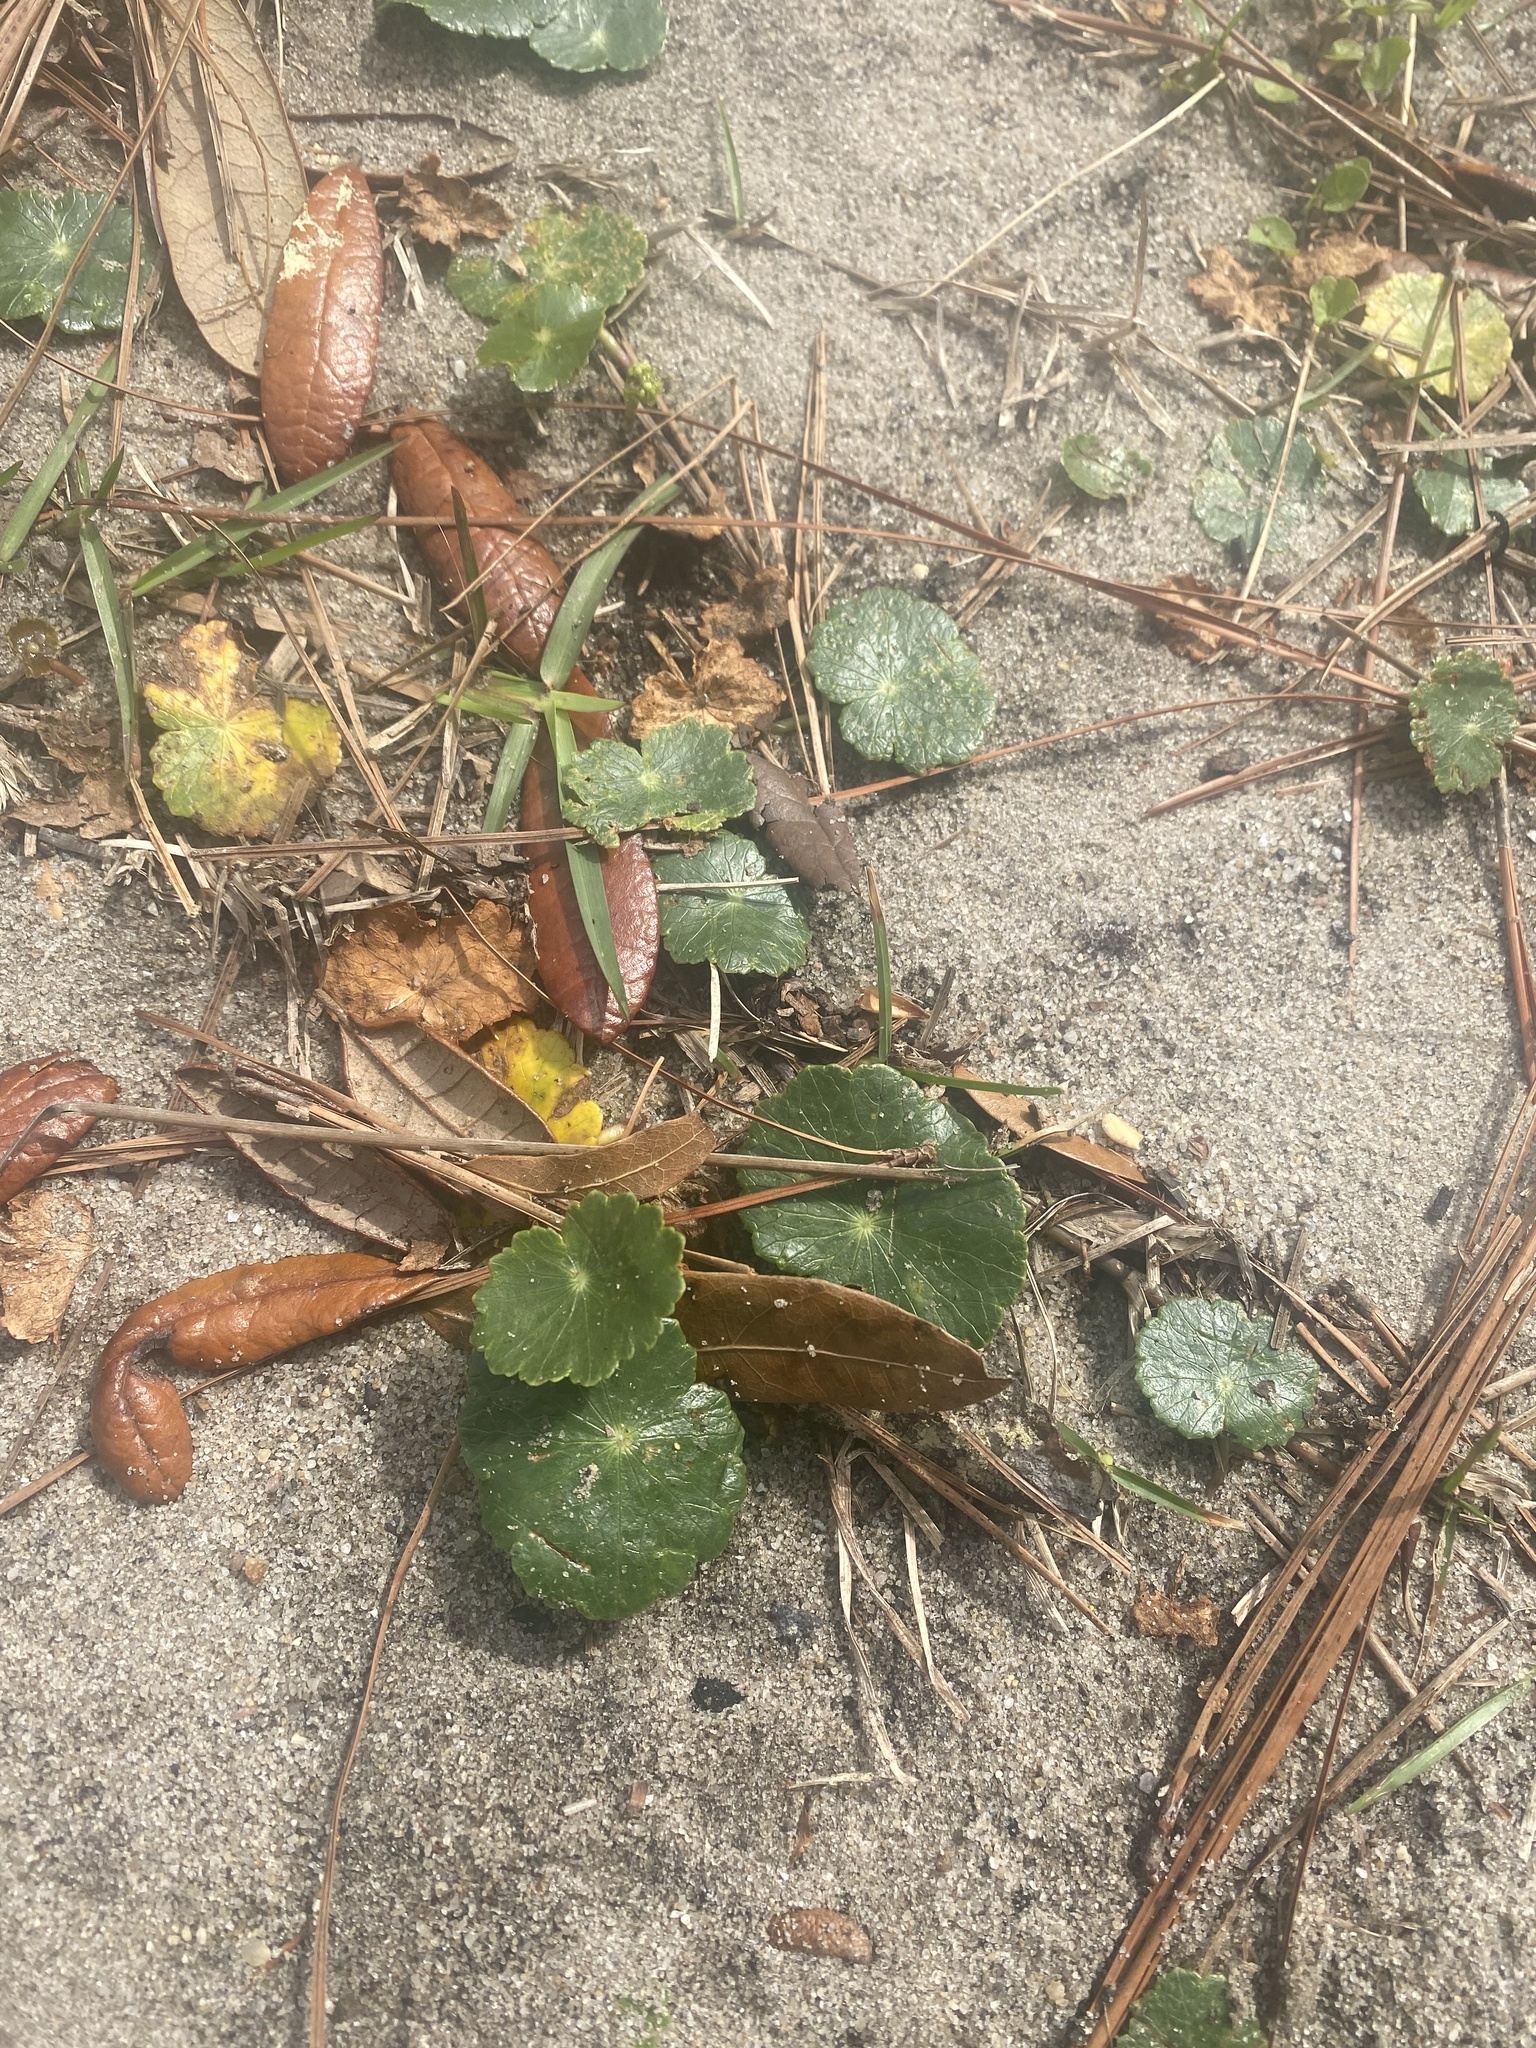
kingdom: Plantae
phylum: Tracheophyta
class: Magnoliopsida
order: Apiales
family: Araliaceae
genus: Hydrocotyle
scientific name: Hydrocotyle bonariensis
